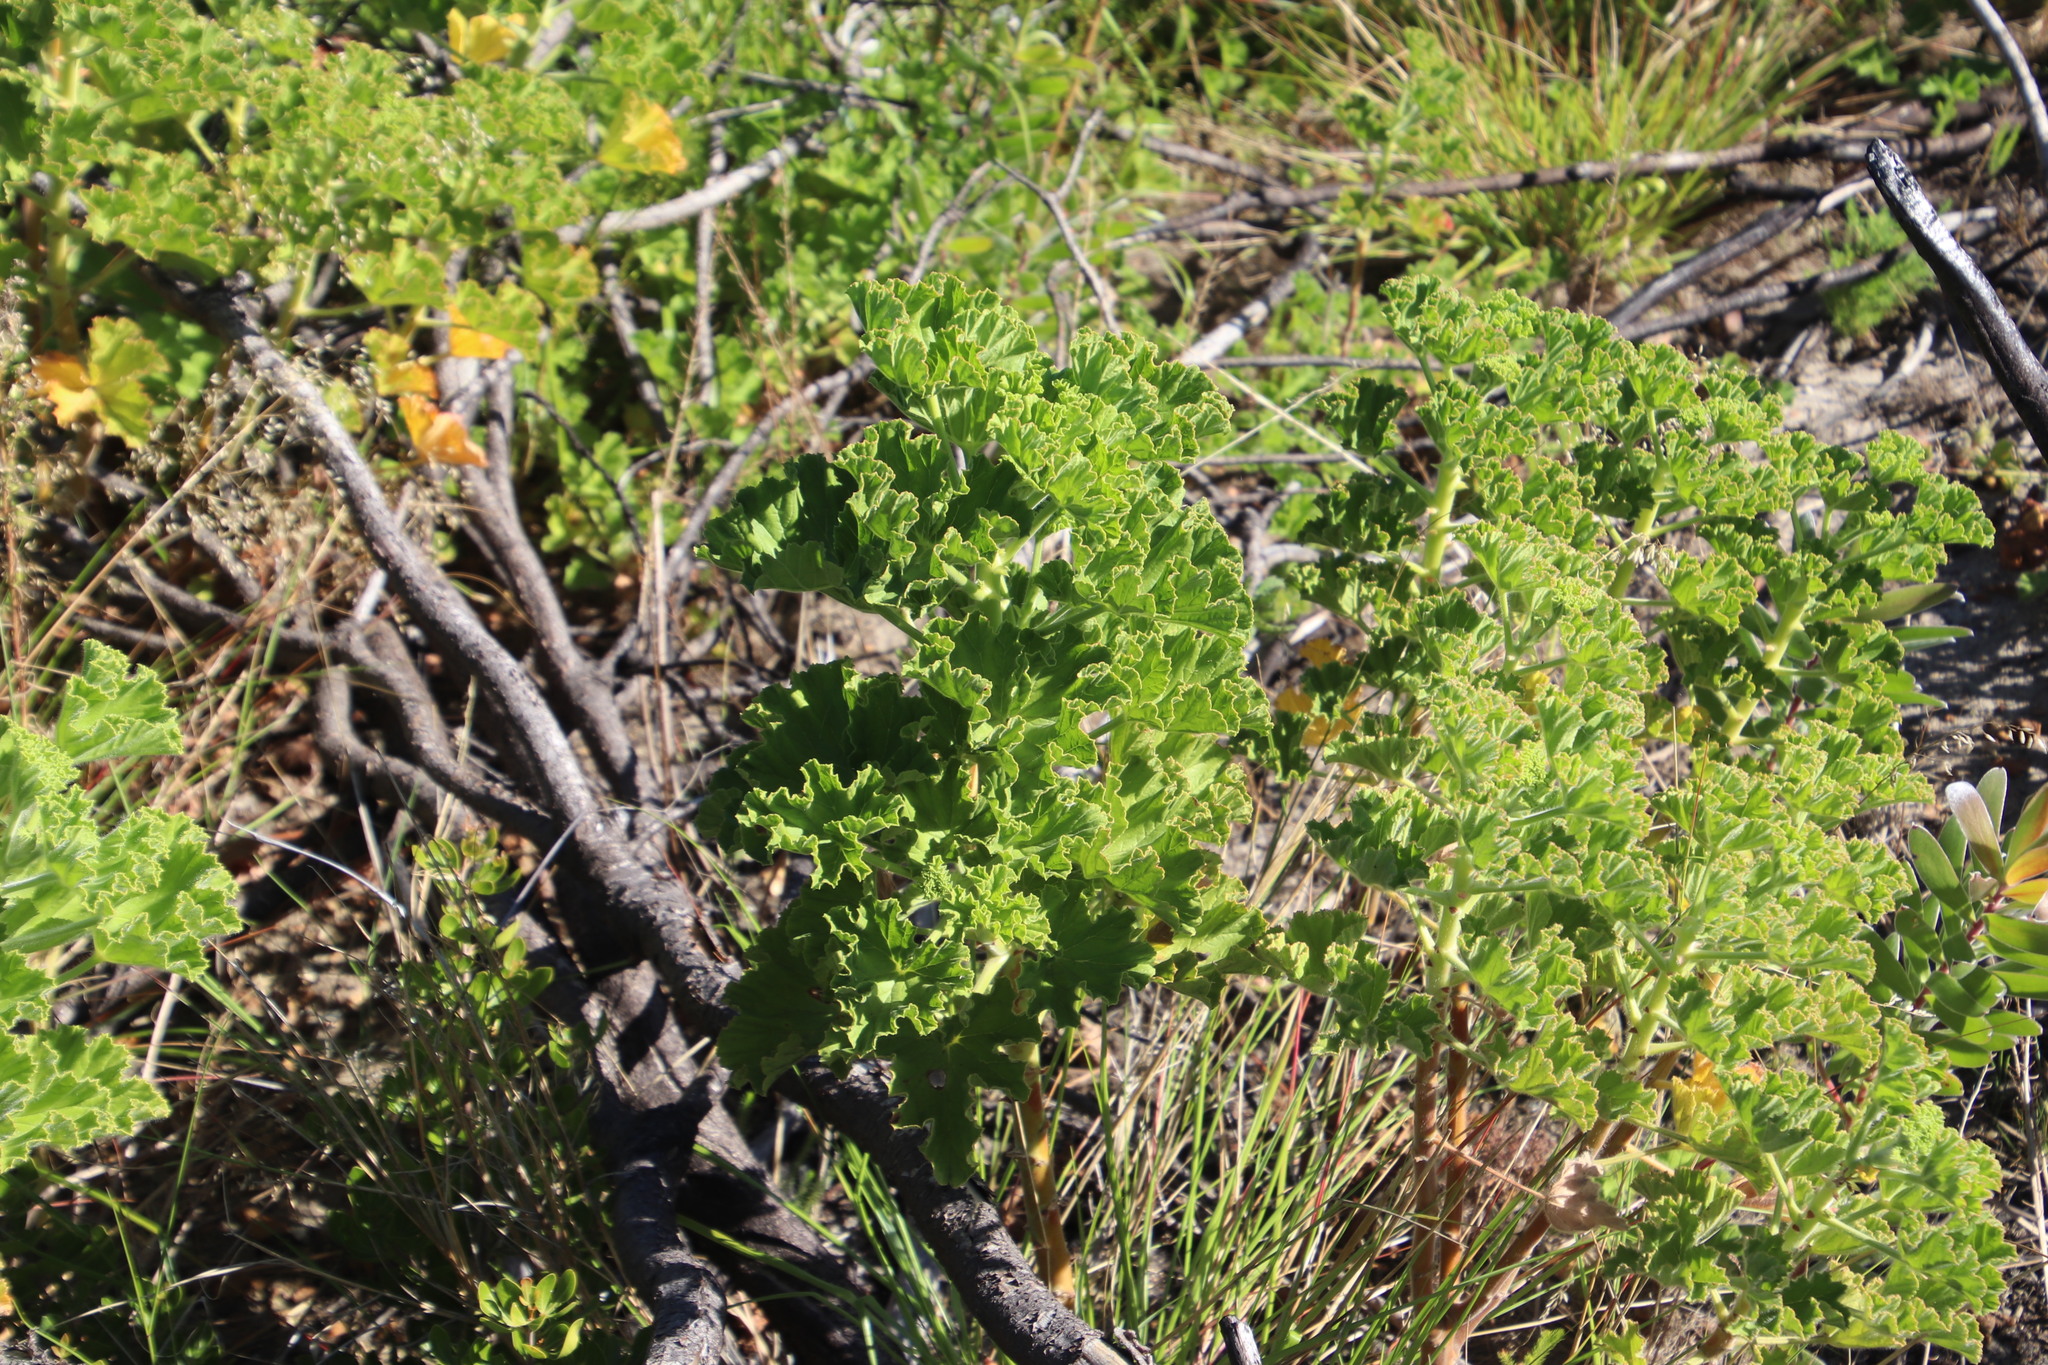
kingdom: Plantae
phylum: Tracheophyta
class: Magnoliopsida
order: Geraniales
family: Geraniaceae
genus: Pelargonium
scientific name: Pelargonium cucullatum
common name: Tree pelargonium
